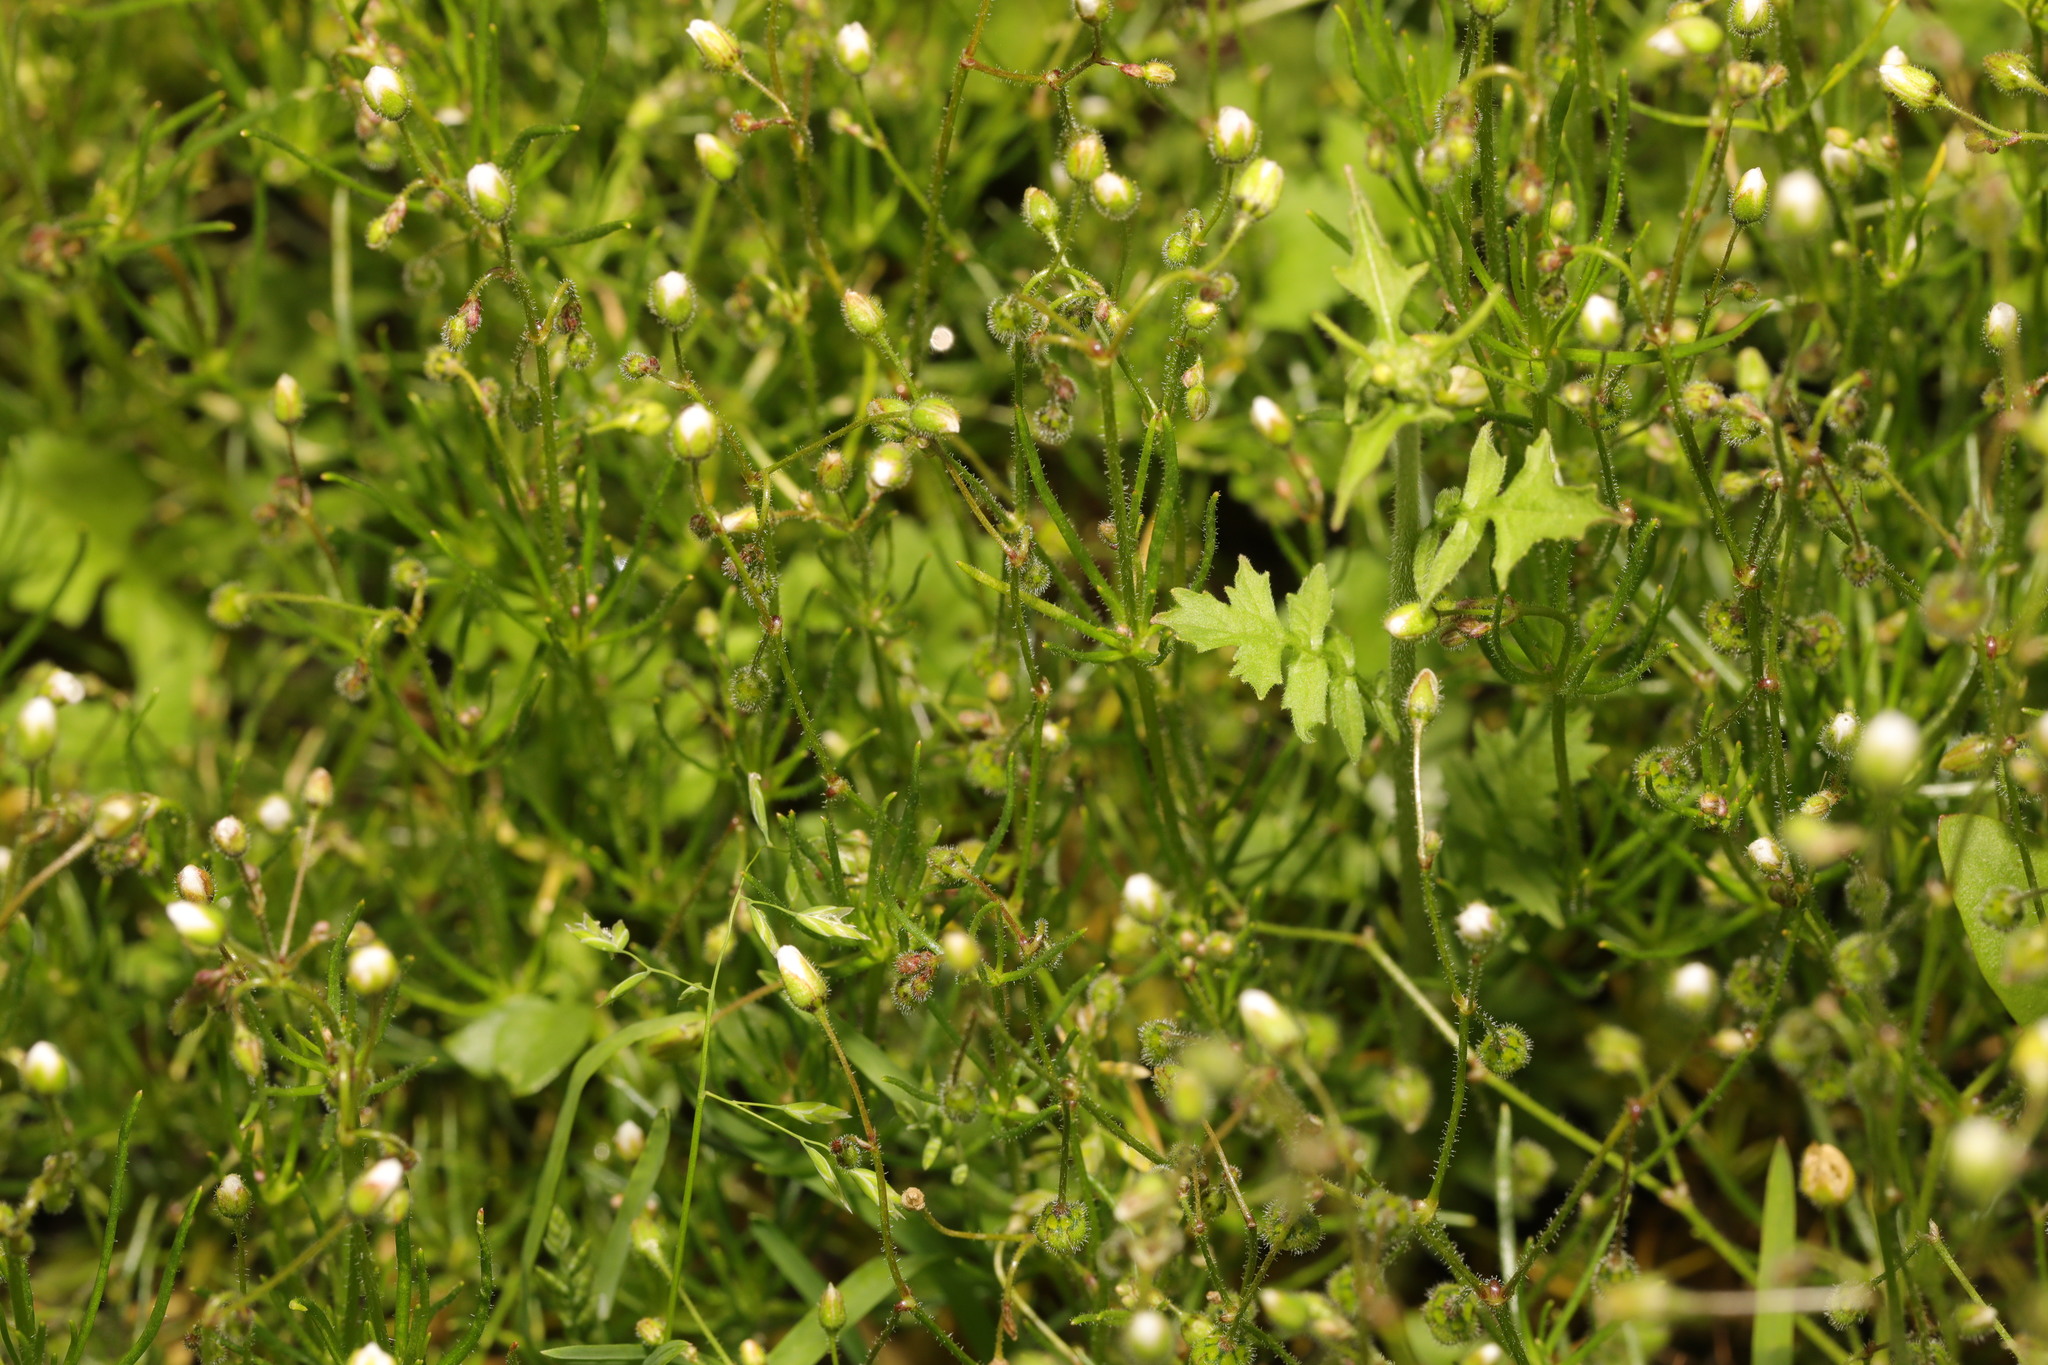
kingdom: Plantae
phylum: Tracheophyta
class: Magnoliopsida
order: Caryophyllales
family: Caryophyllaceae
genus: Spergula
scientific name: Spergula arvensis
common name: Corn spurrey
